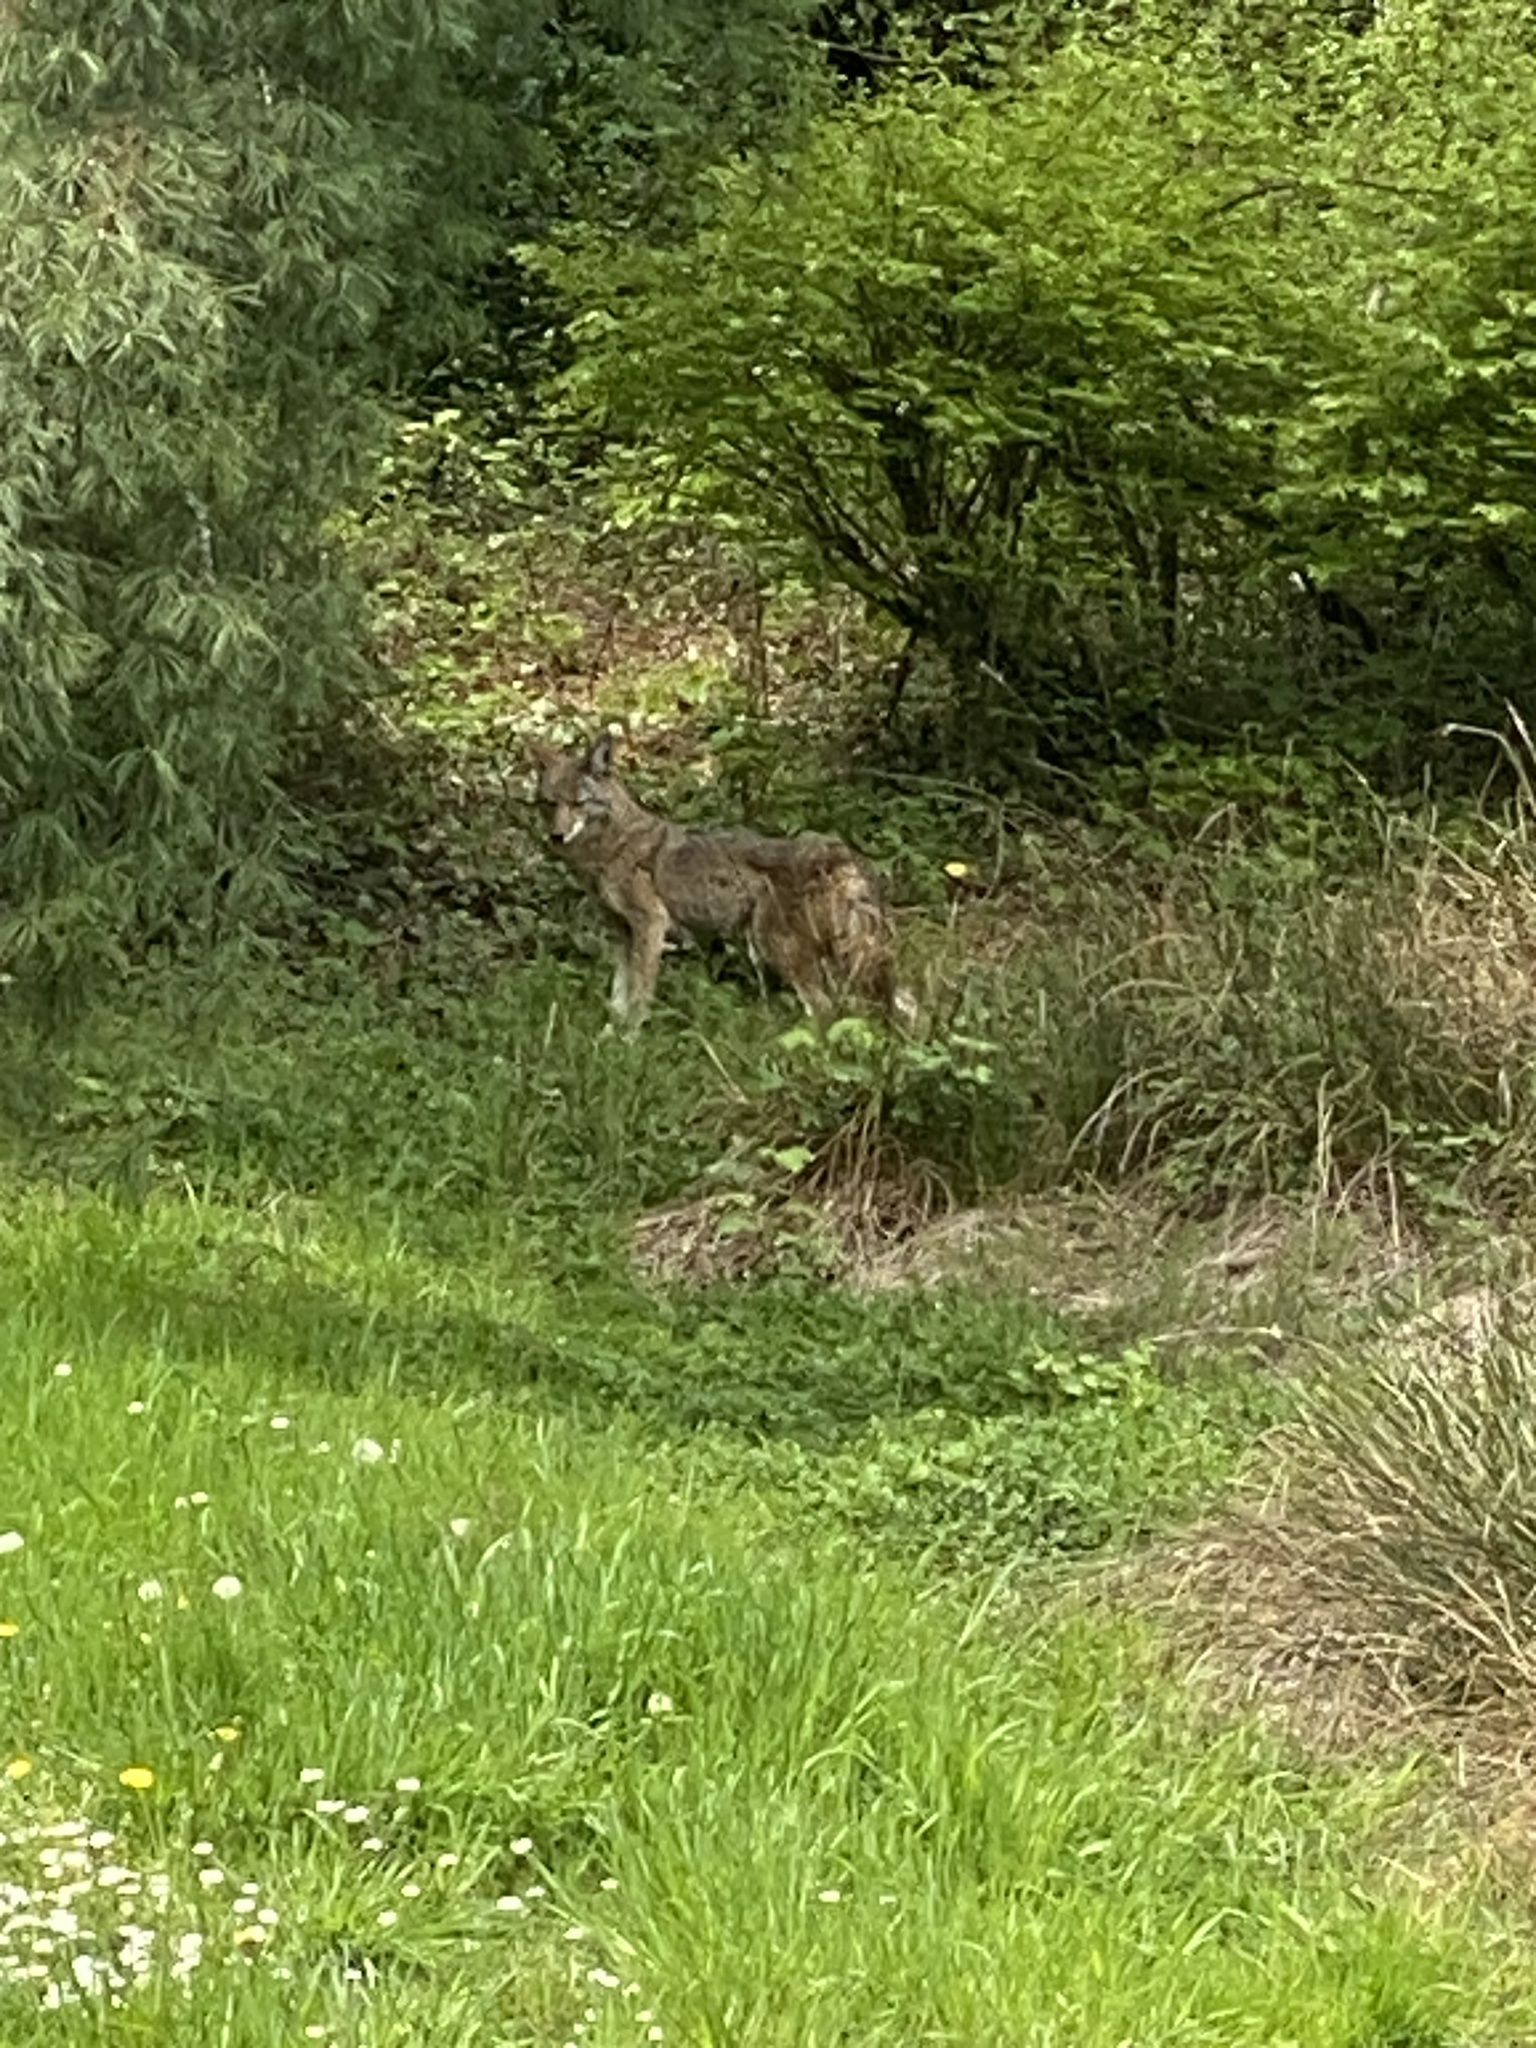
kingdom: Animalia
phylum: Chordata
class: Mammalia
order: Carnivora
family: Canidae
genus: Canis
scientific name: Canis latrans
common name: Coyote
